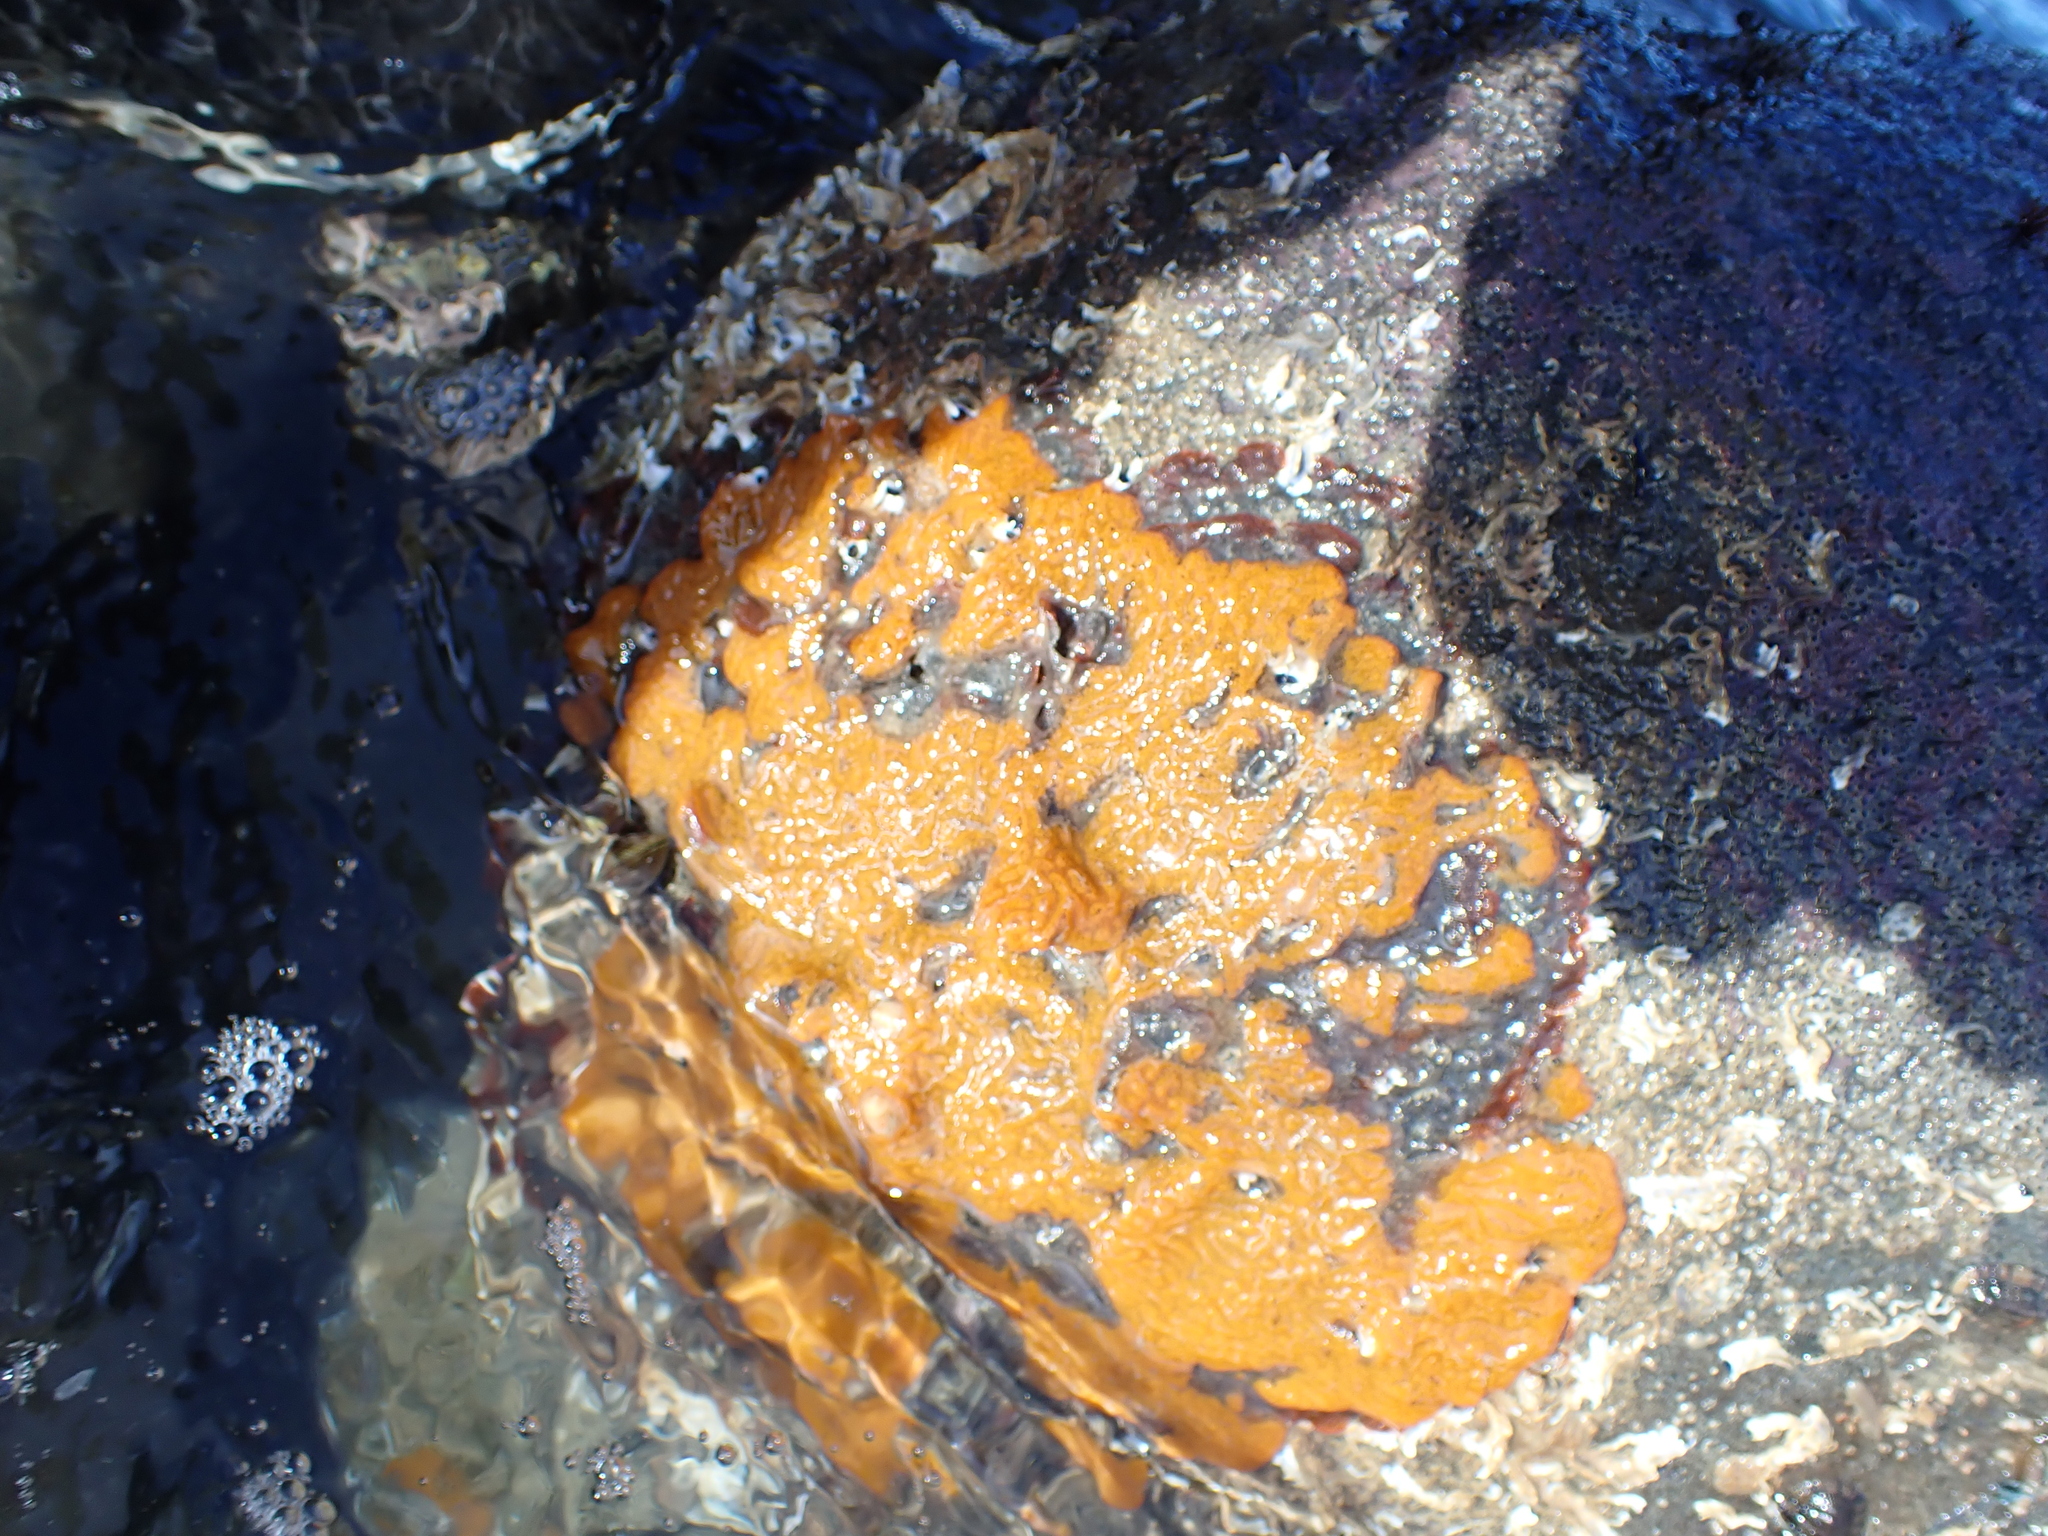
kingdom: Animalia
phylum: Chordata
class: Ascidiacea
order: Stolidobranchia
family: Styelidae
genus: Botrylloides
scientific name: Botrylloides violaceus
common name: Colonial sea squirt
